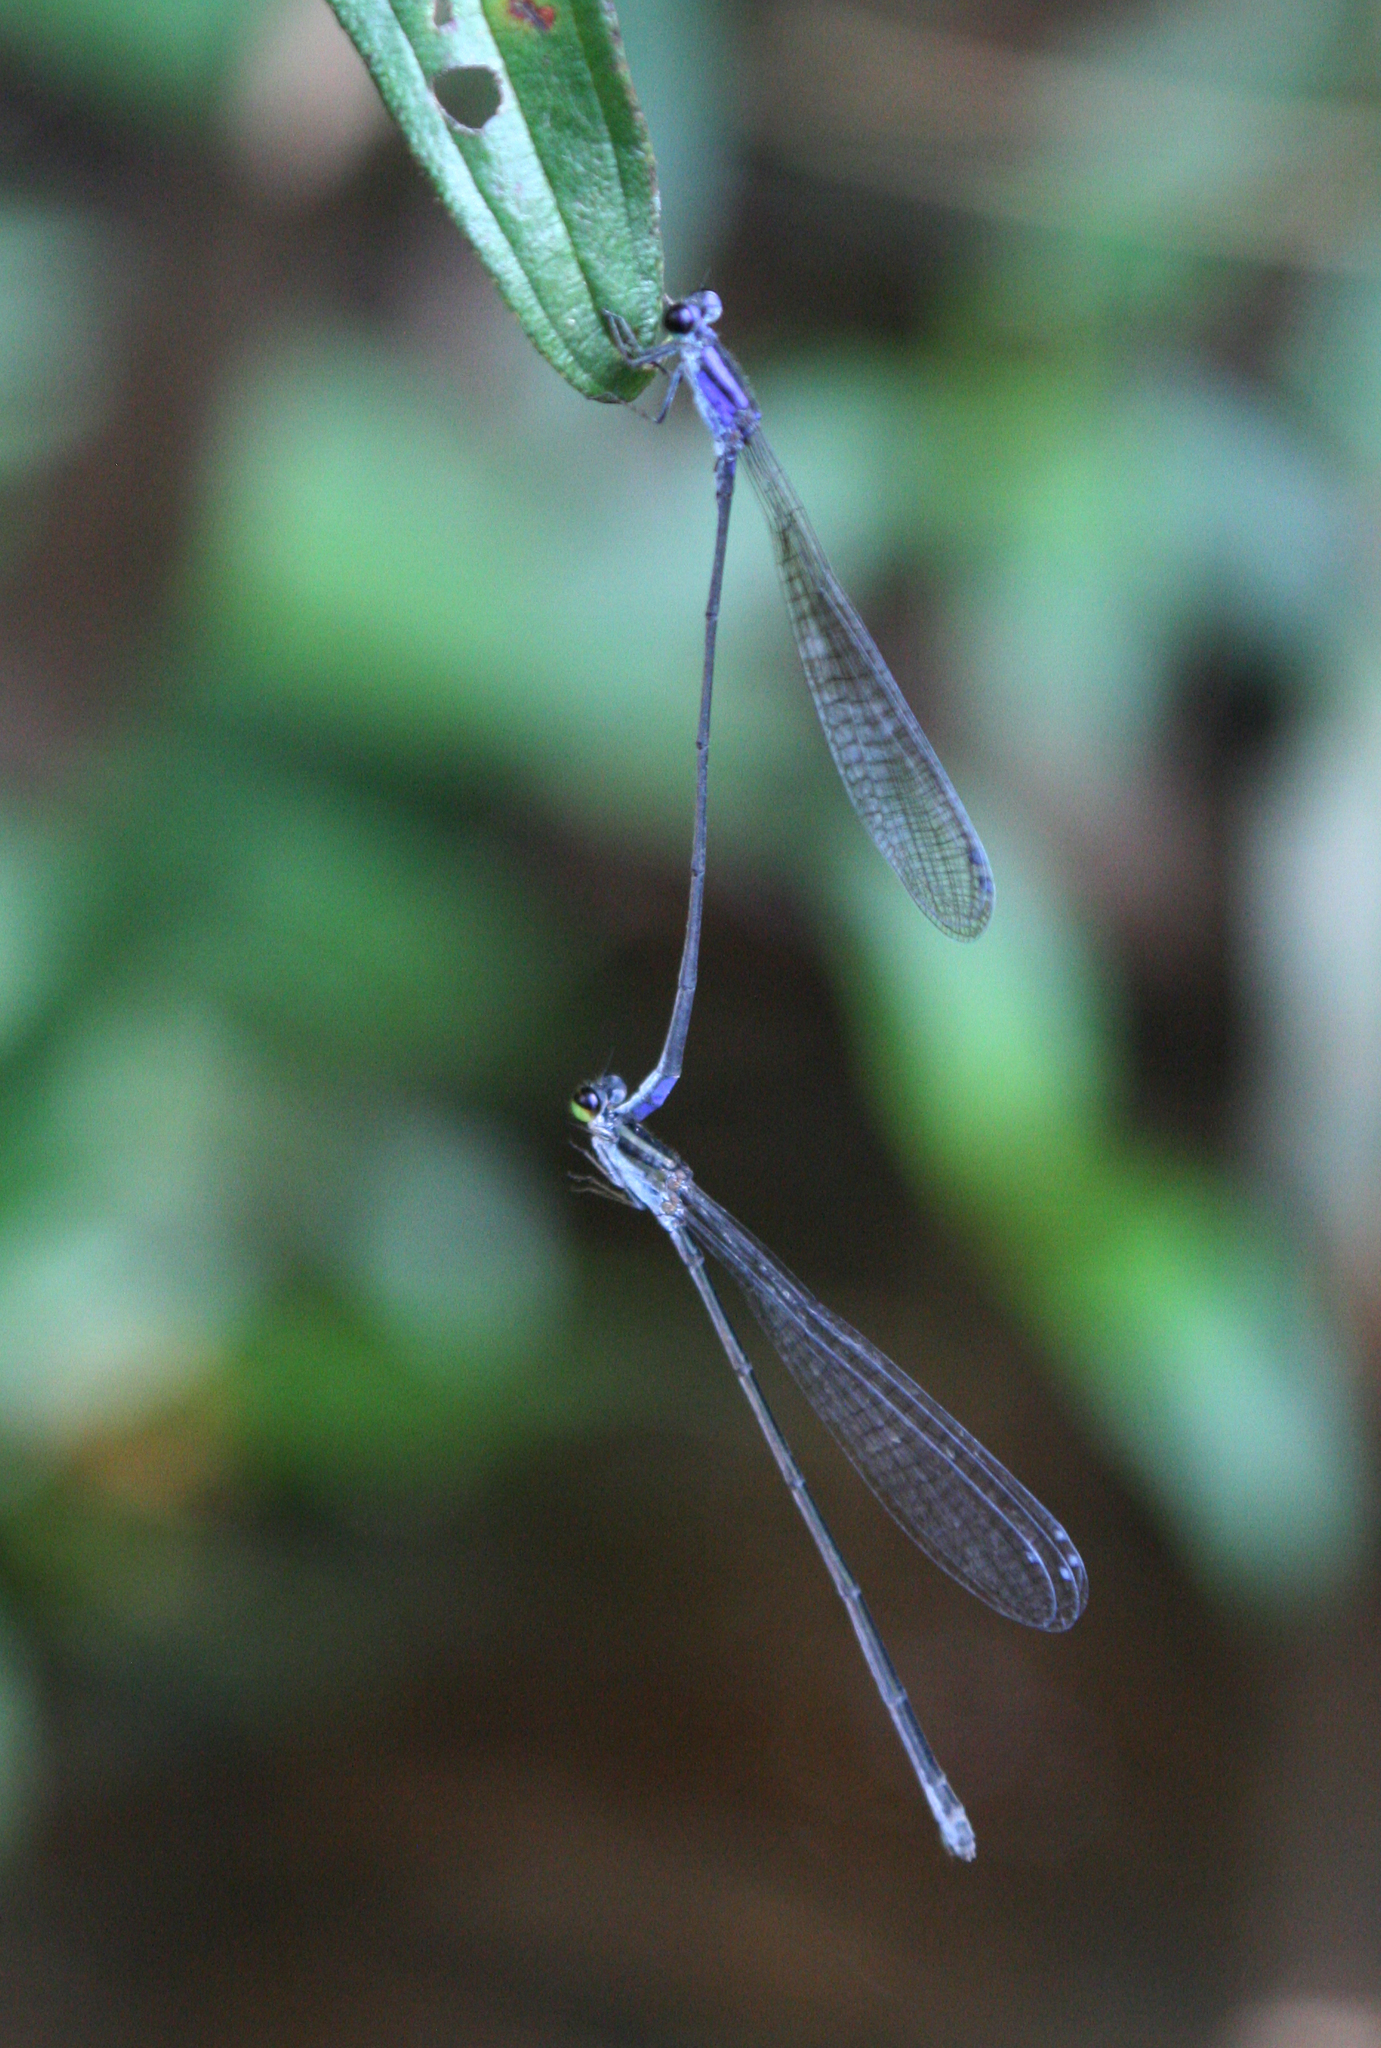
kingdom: Animalia
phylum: Arthropoda
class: Insecta
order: Odonata
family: Coenagrionidae
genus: Archibasis
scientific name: Archibasis viola
